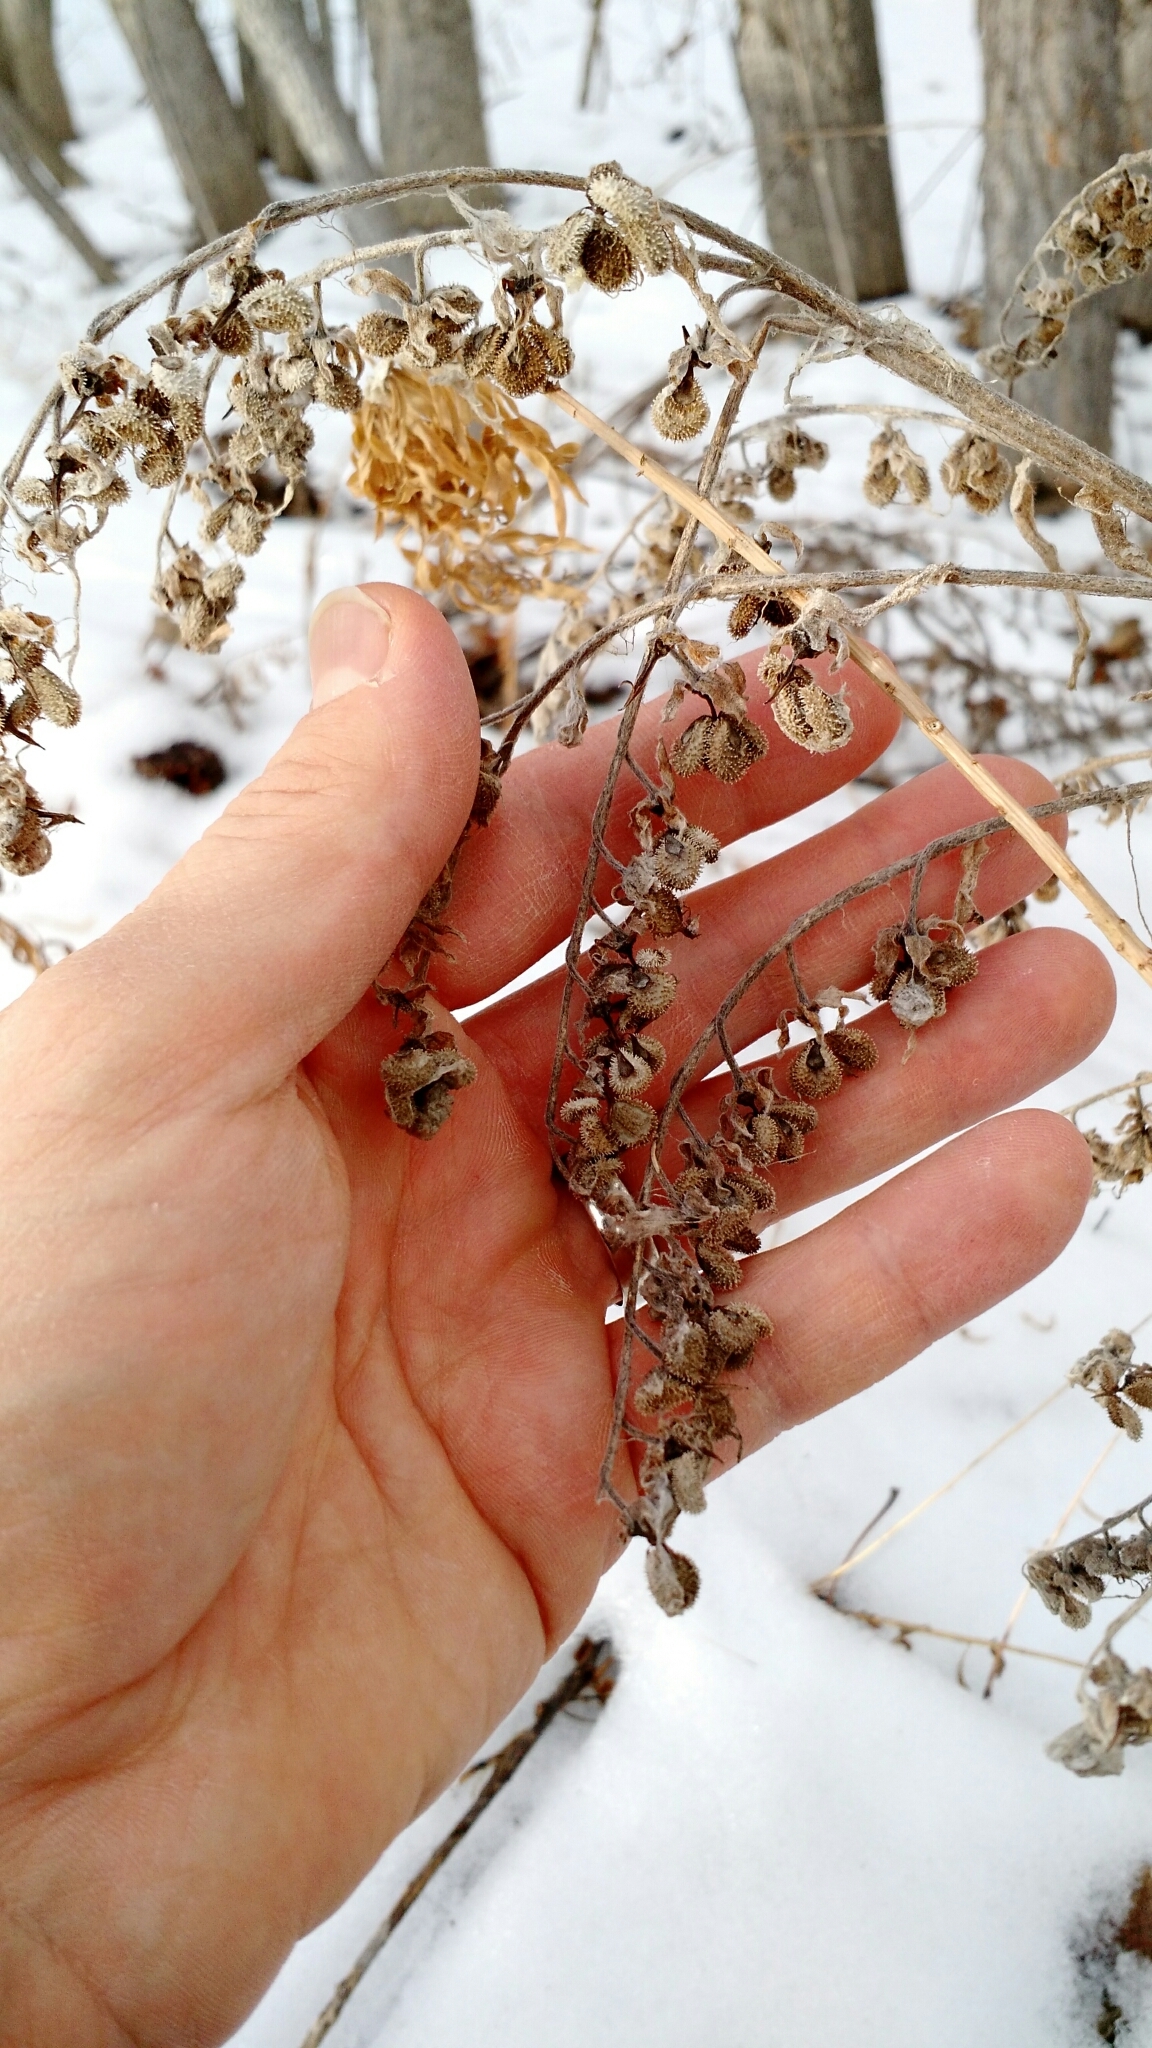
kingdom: Plantae
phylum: Tracheophyta
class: Magnoliopsida
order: Boraginales
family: Boraginaceae
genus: Cynoglossum
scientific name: Cynoglossum officinale
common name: Hound's-tongue
